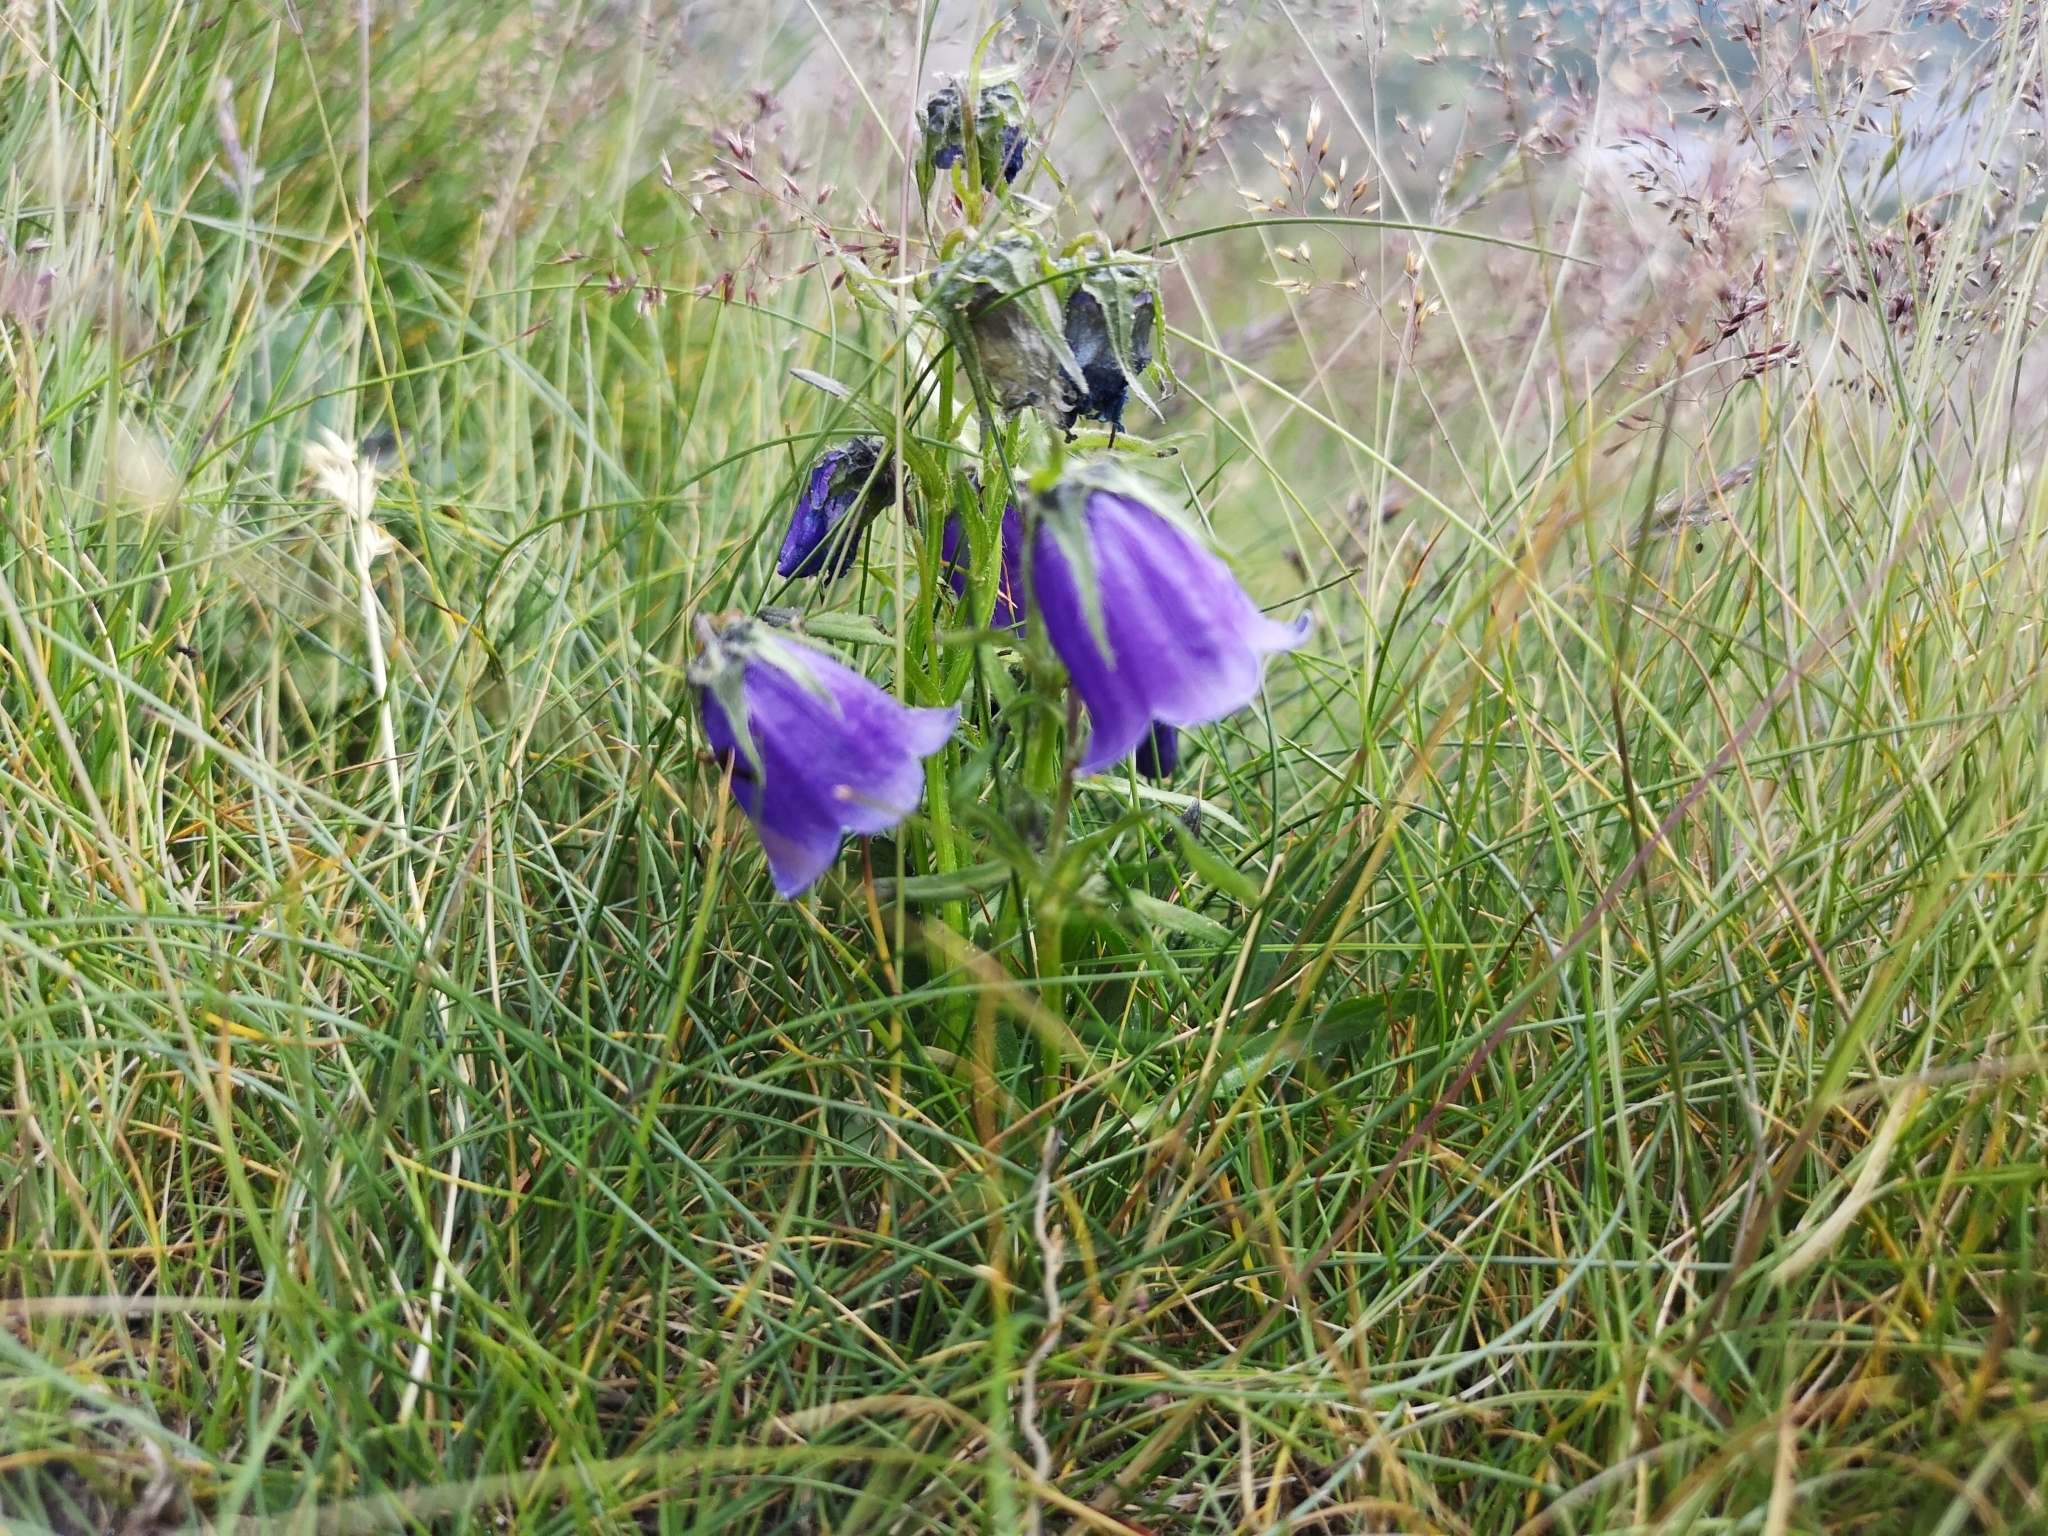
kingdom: Plantae
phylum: Tracheophyta
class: Magnoliopsida
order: Asterales
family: Campanulaceae
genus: Campanula
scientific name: Campanula alpina
